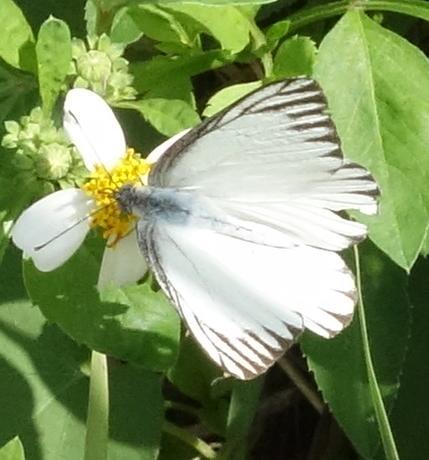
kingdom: Animalia
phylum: Arthropoda
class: Insecta
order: Lepidoptera
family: Pieridae
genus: Appias
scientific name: Appias libythea
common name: Striped albatross
